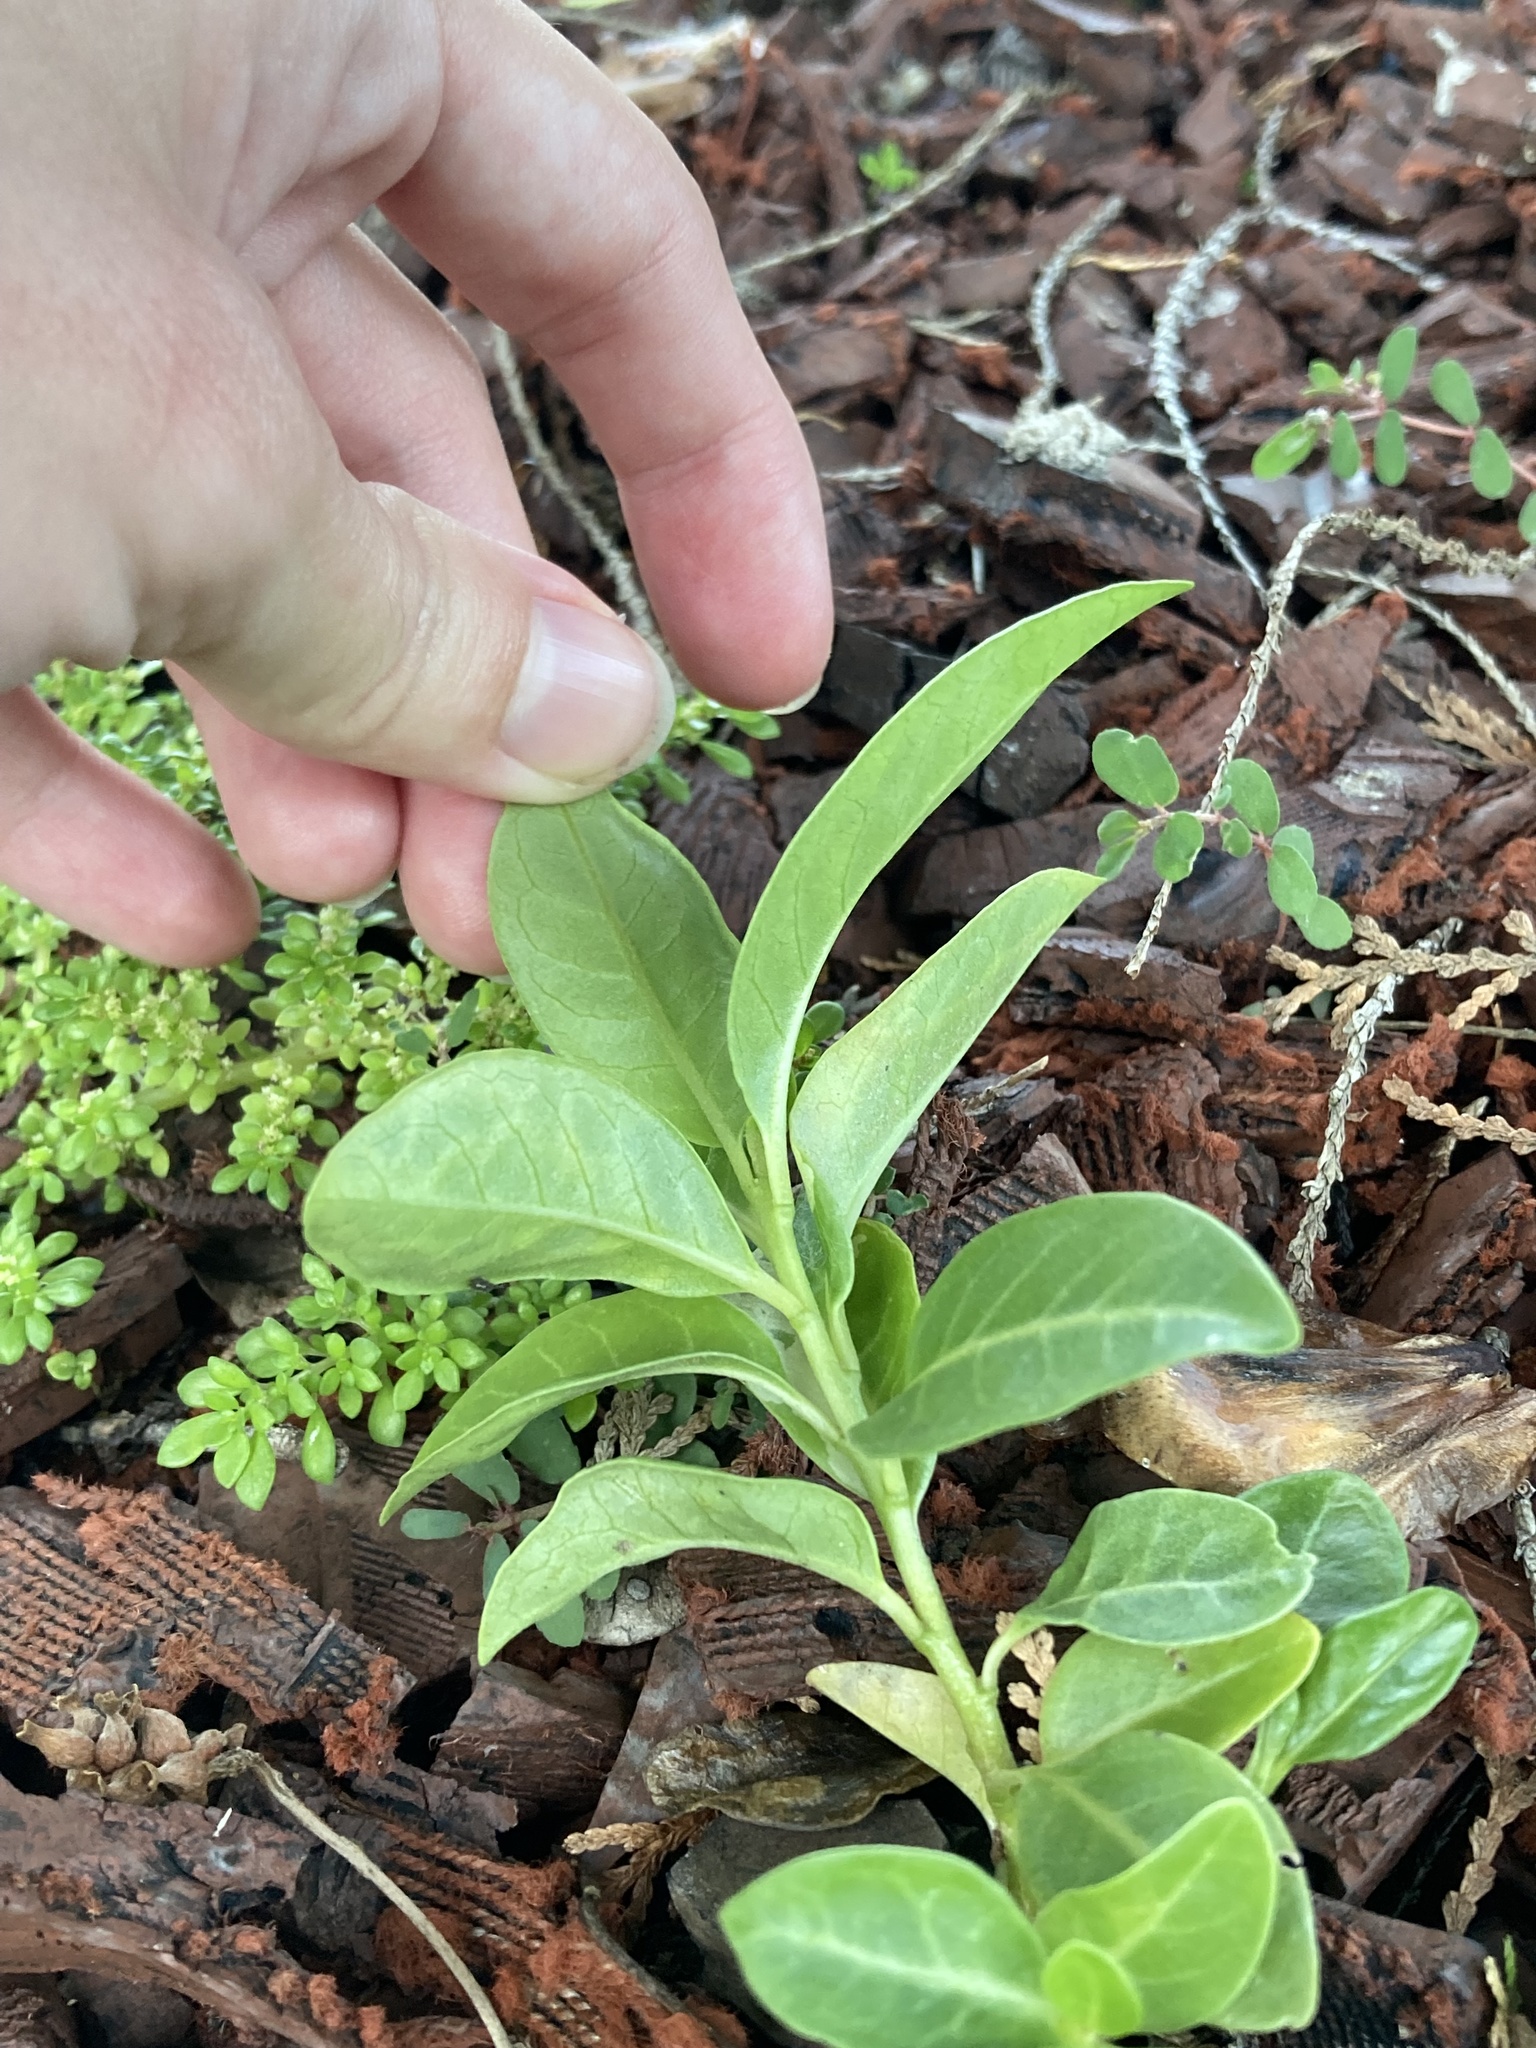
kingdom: Plantae
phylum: Tracheophyta
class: Magnoliopsida
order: Gentianales
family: Apocynaceae
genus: Catharanthus
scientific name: Catharanthus roseus
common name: Madagascar periwinkle
